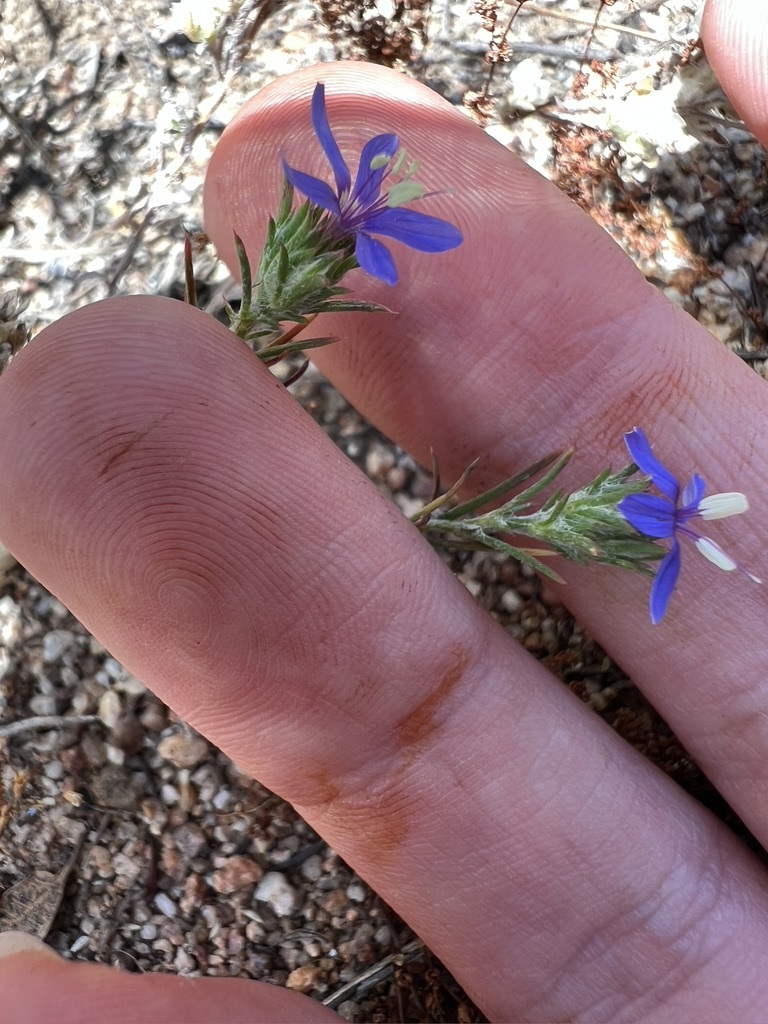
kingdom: Plantae
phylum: Tracheophyta
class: Magnoliopsida
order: Ericales
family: Polemoniaceae
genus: Eriastrum
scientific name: Eriastrum sapphirinum
